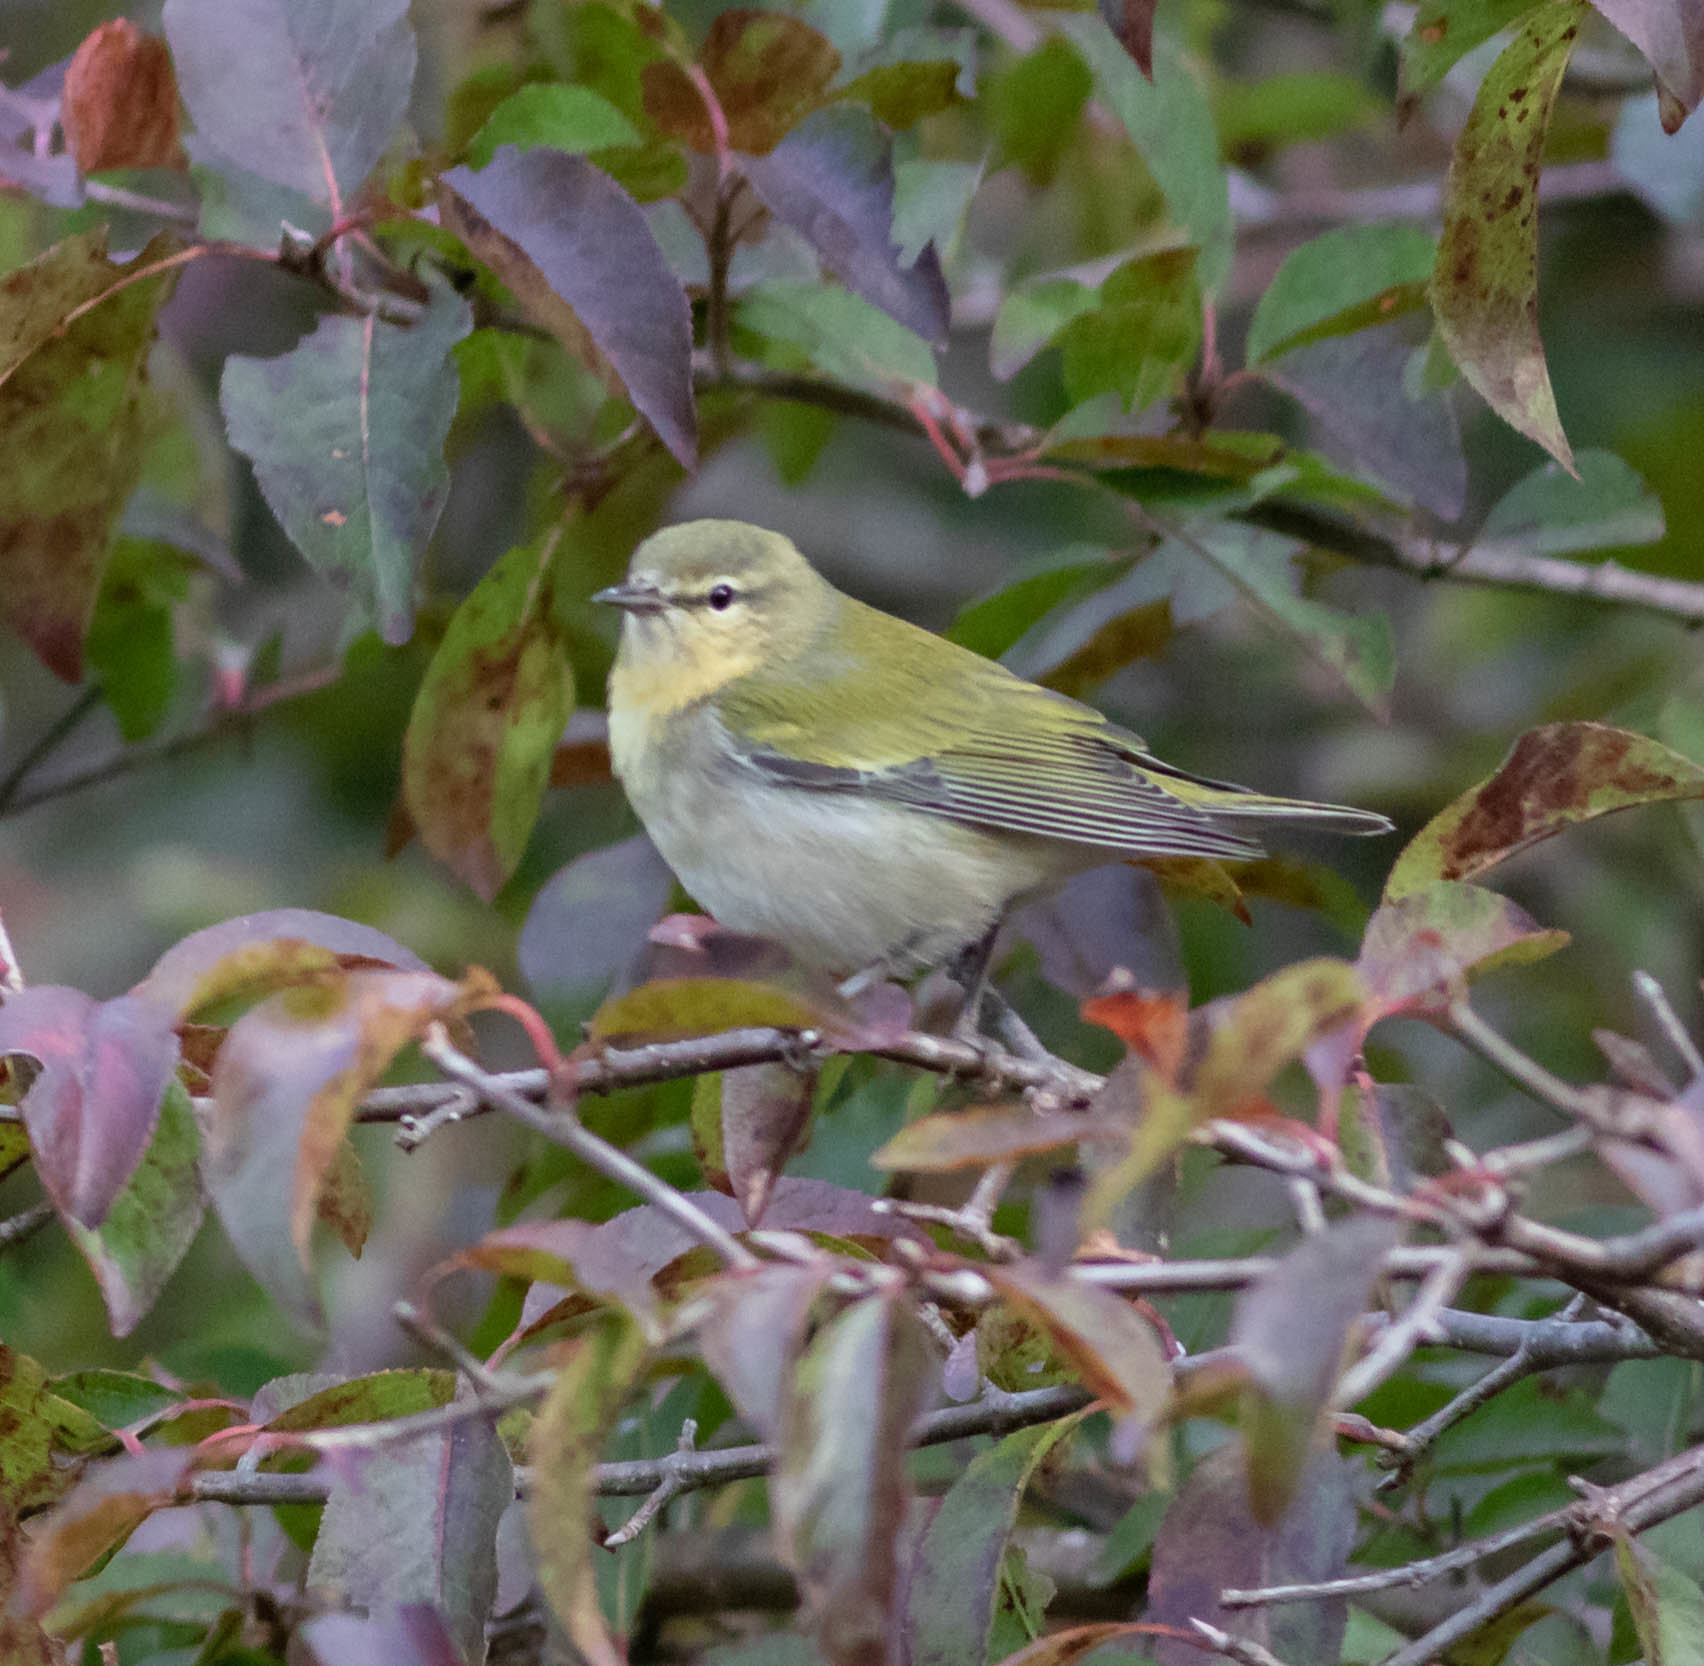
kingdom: Animalia
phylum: Chordata
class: Aves
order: Passeriformes
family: Parulidae
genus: Leiothlypis
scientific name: Leiothlypis peregrina
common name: Tennessee warbler
